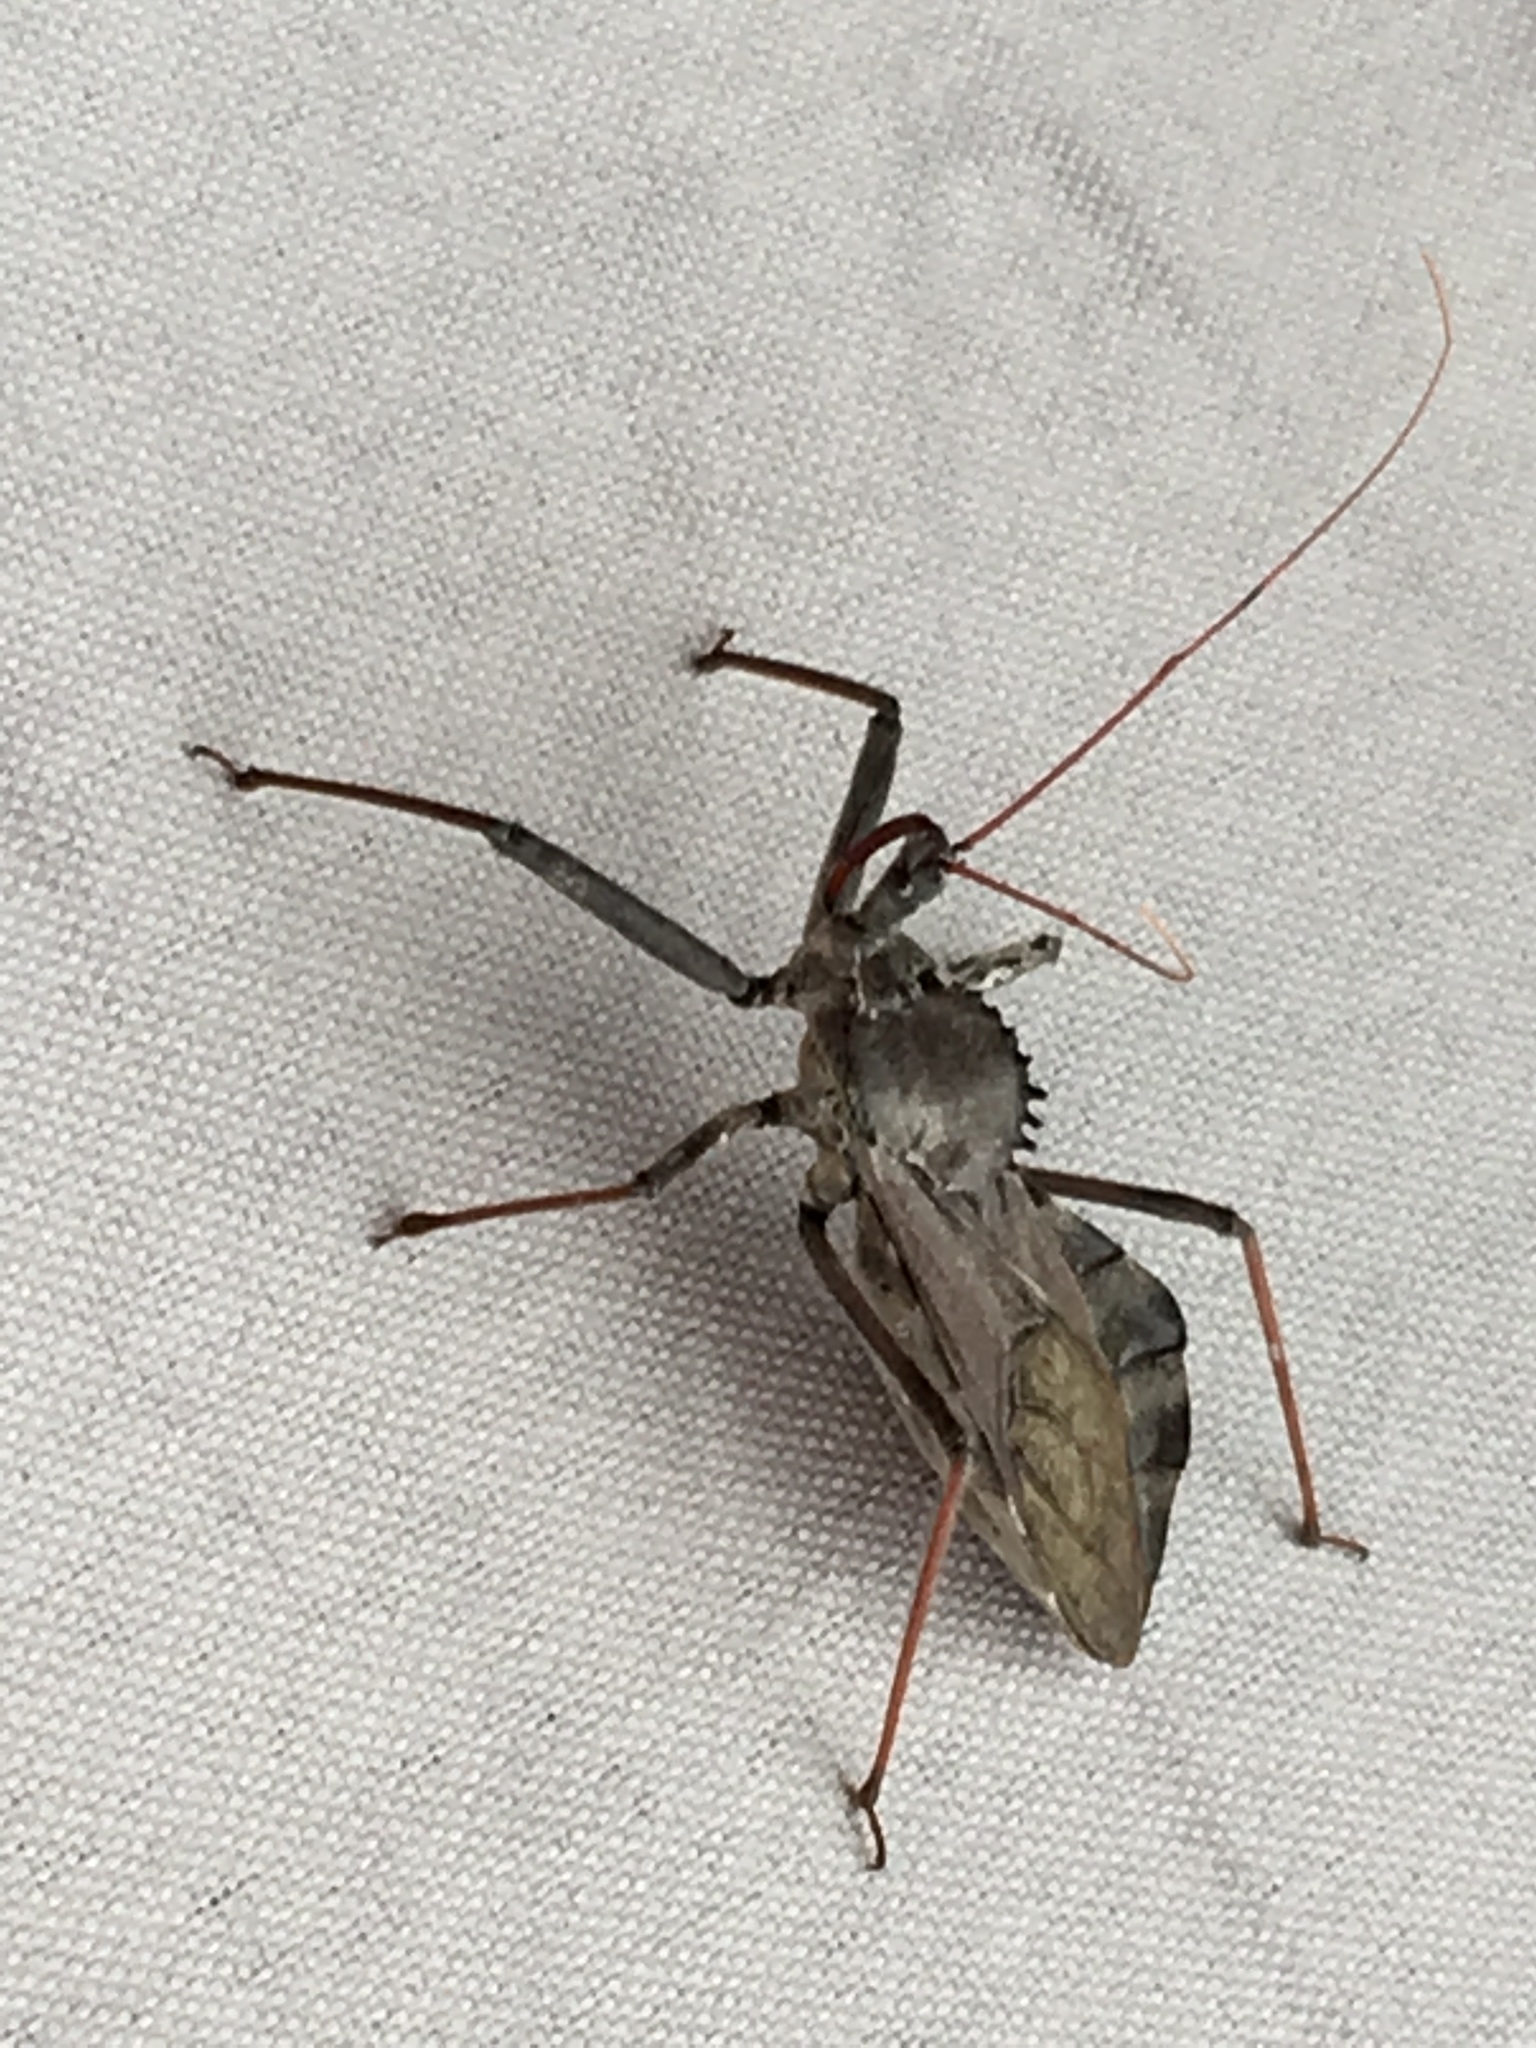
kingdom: Animalia
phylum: Arthropoda
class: Insecta
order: Hemiptera
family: Reduviidae
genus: Arilus
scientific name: Arilus cristatus
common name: North american wheel bug
